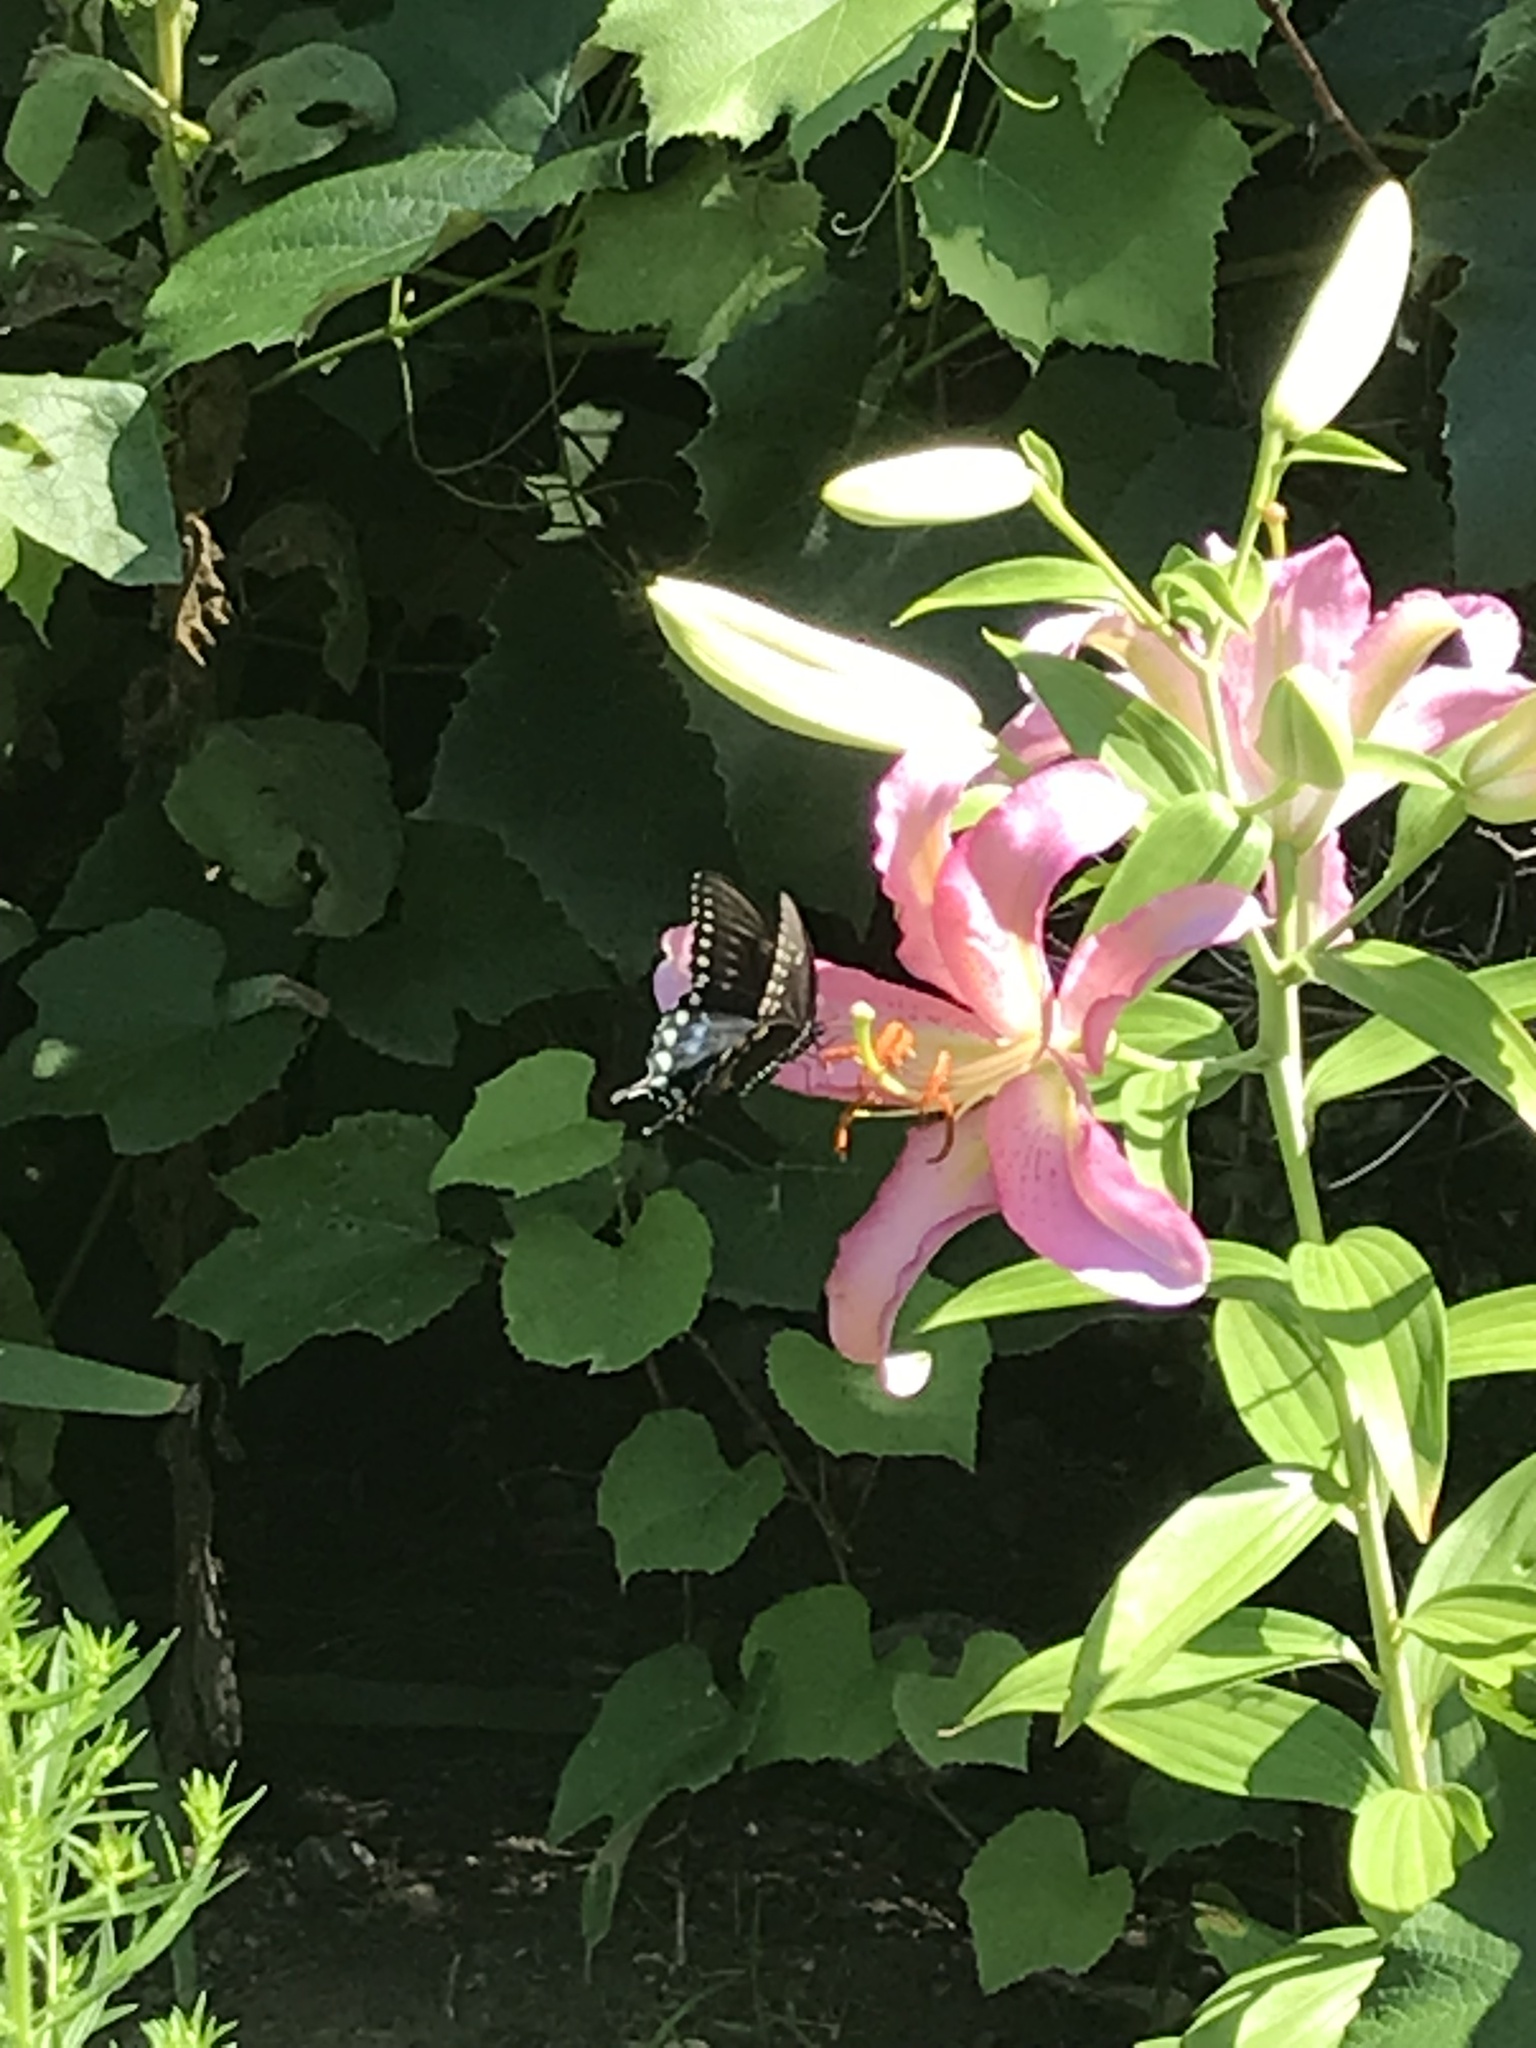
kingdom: Animalia
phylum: Arthropoda
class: Insecta
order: Lepidoptera
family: Papilionidae
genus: Papilio
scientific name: Papilio troilus
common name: Spicebush swallowtail
